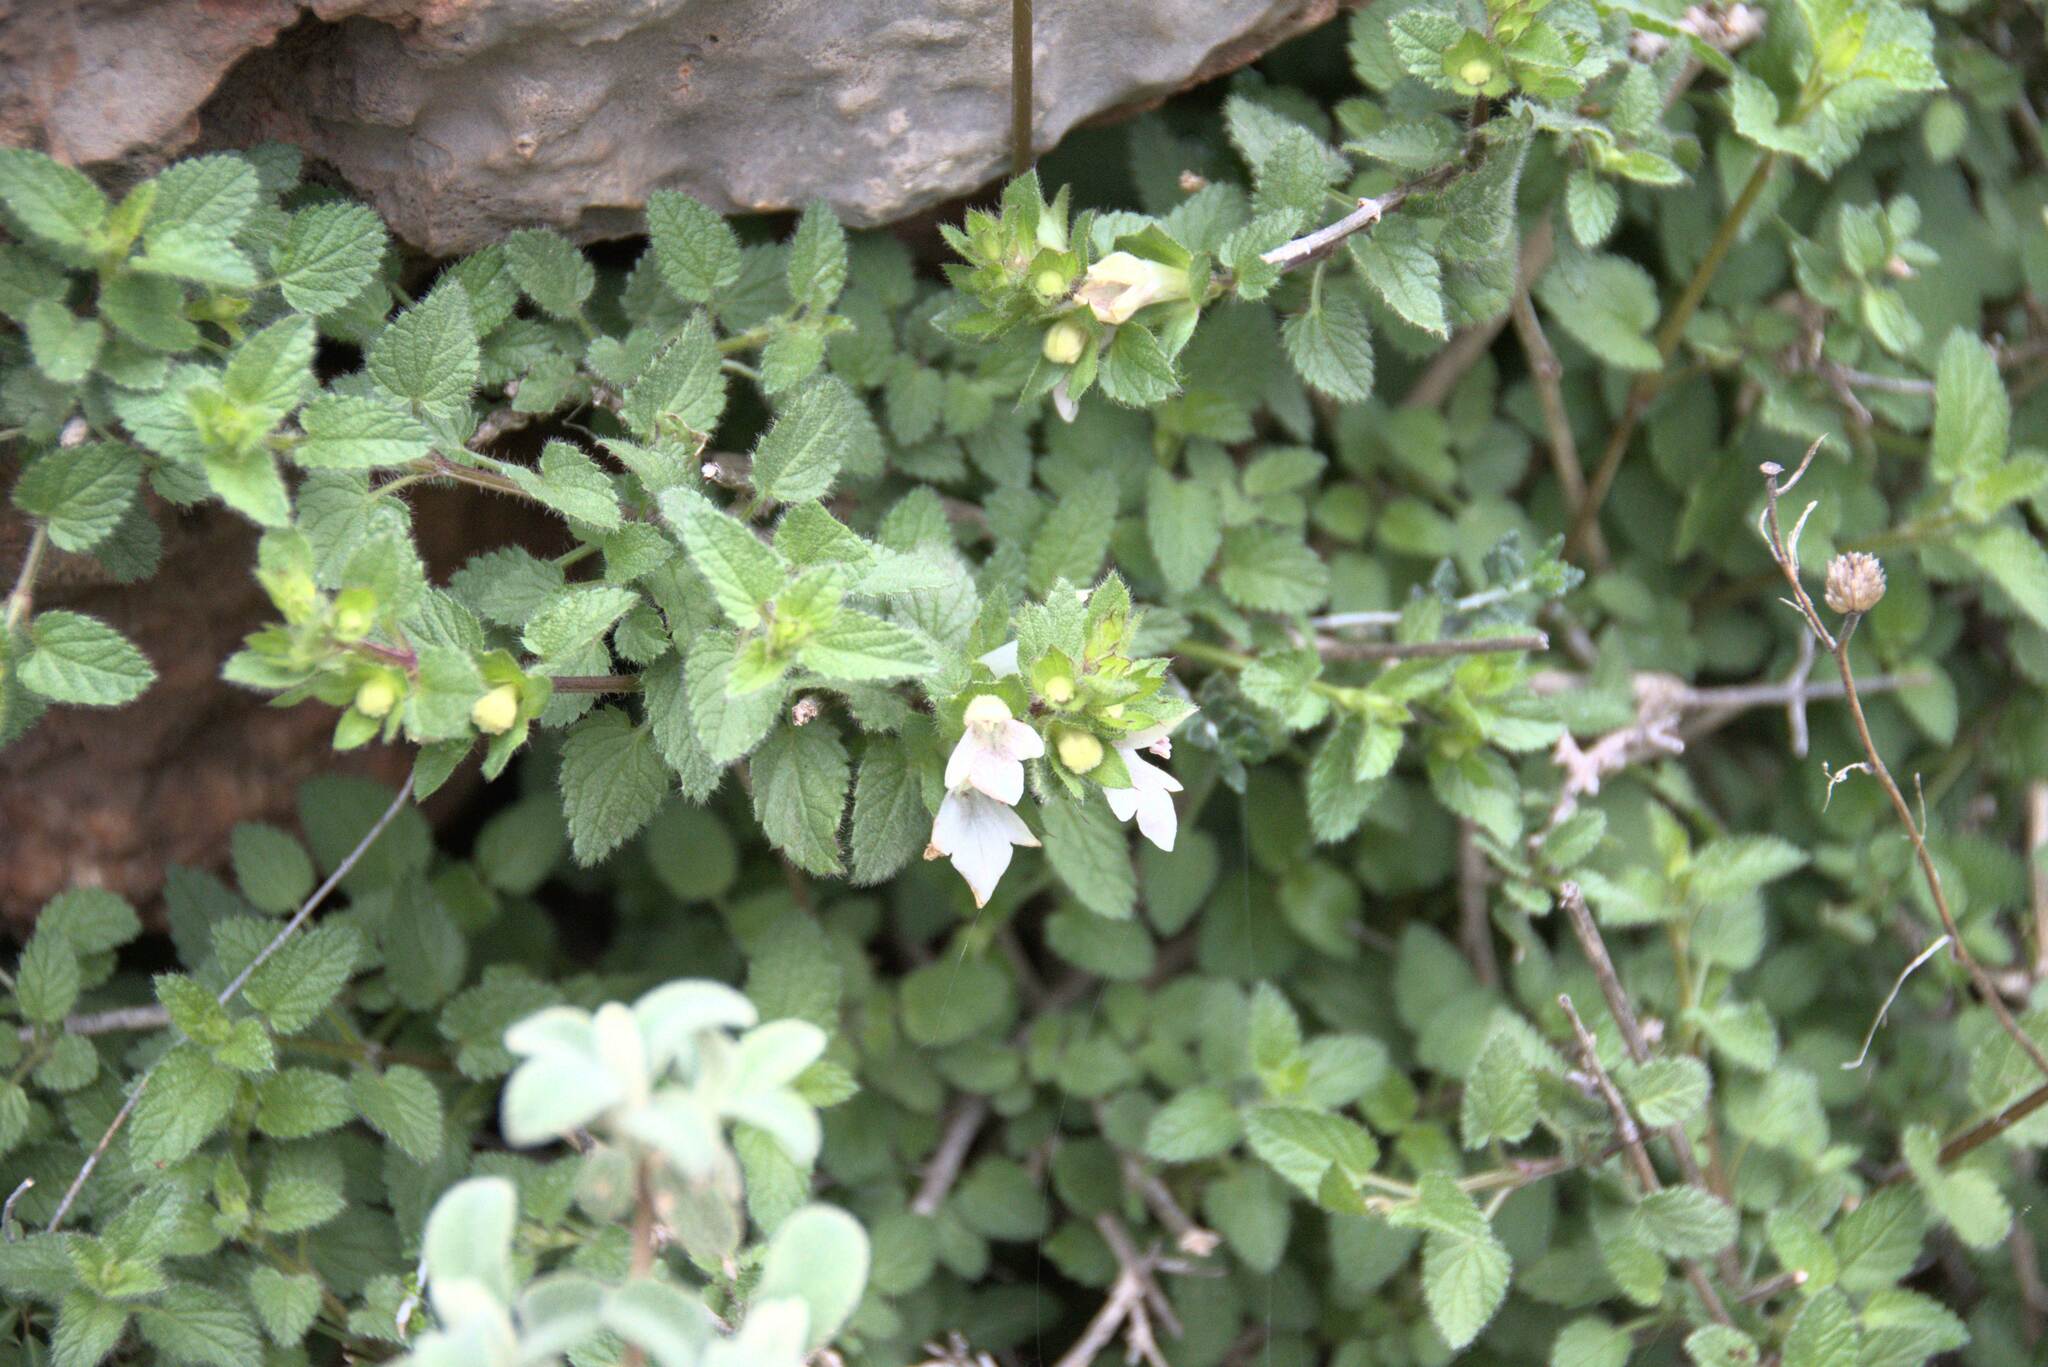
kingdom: Plantae
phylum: Tracheophyta
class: Magnoliopsida
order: Lamiales
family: Lamiaceae
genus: Prasium
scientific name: Prasium majus
